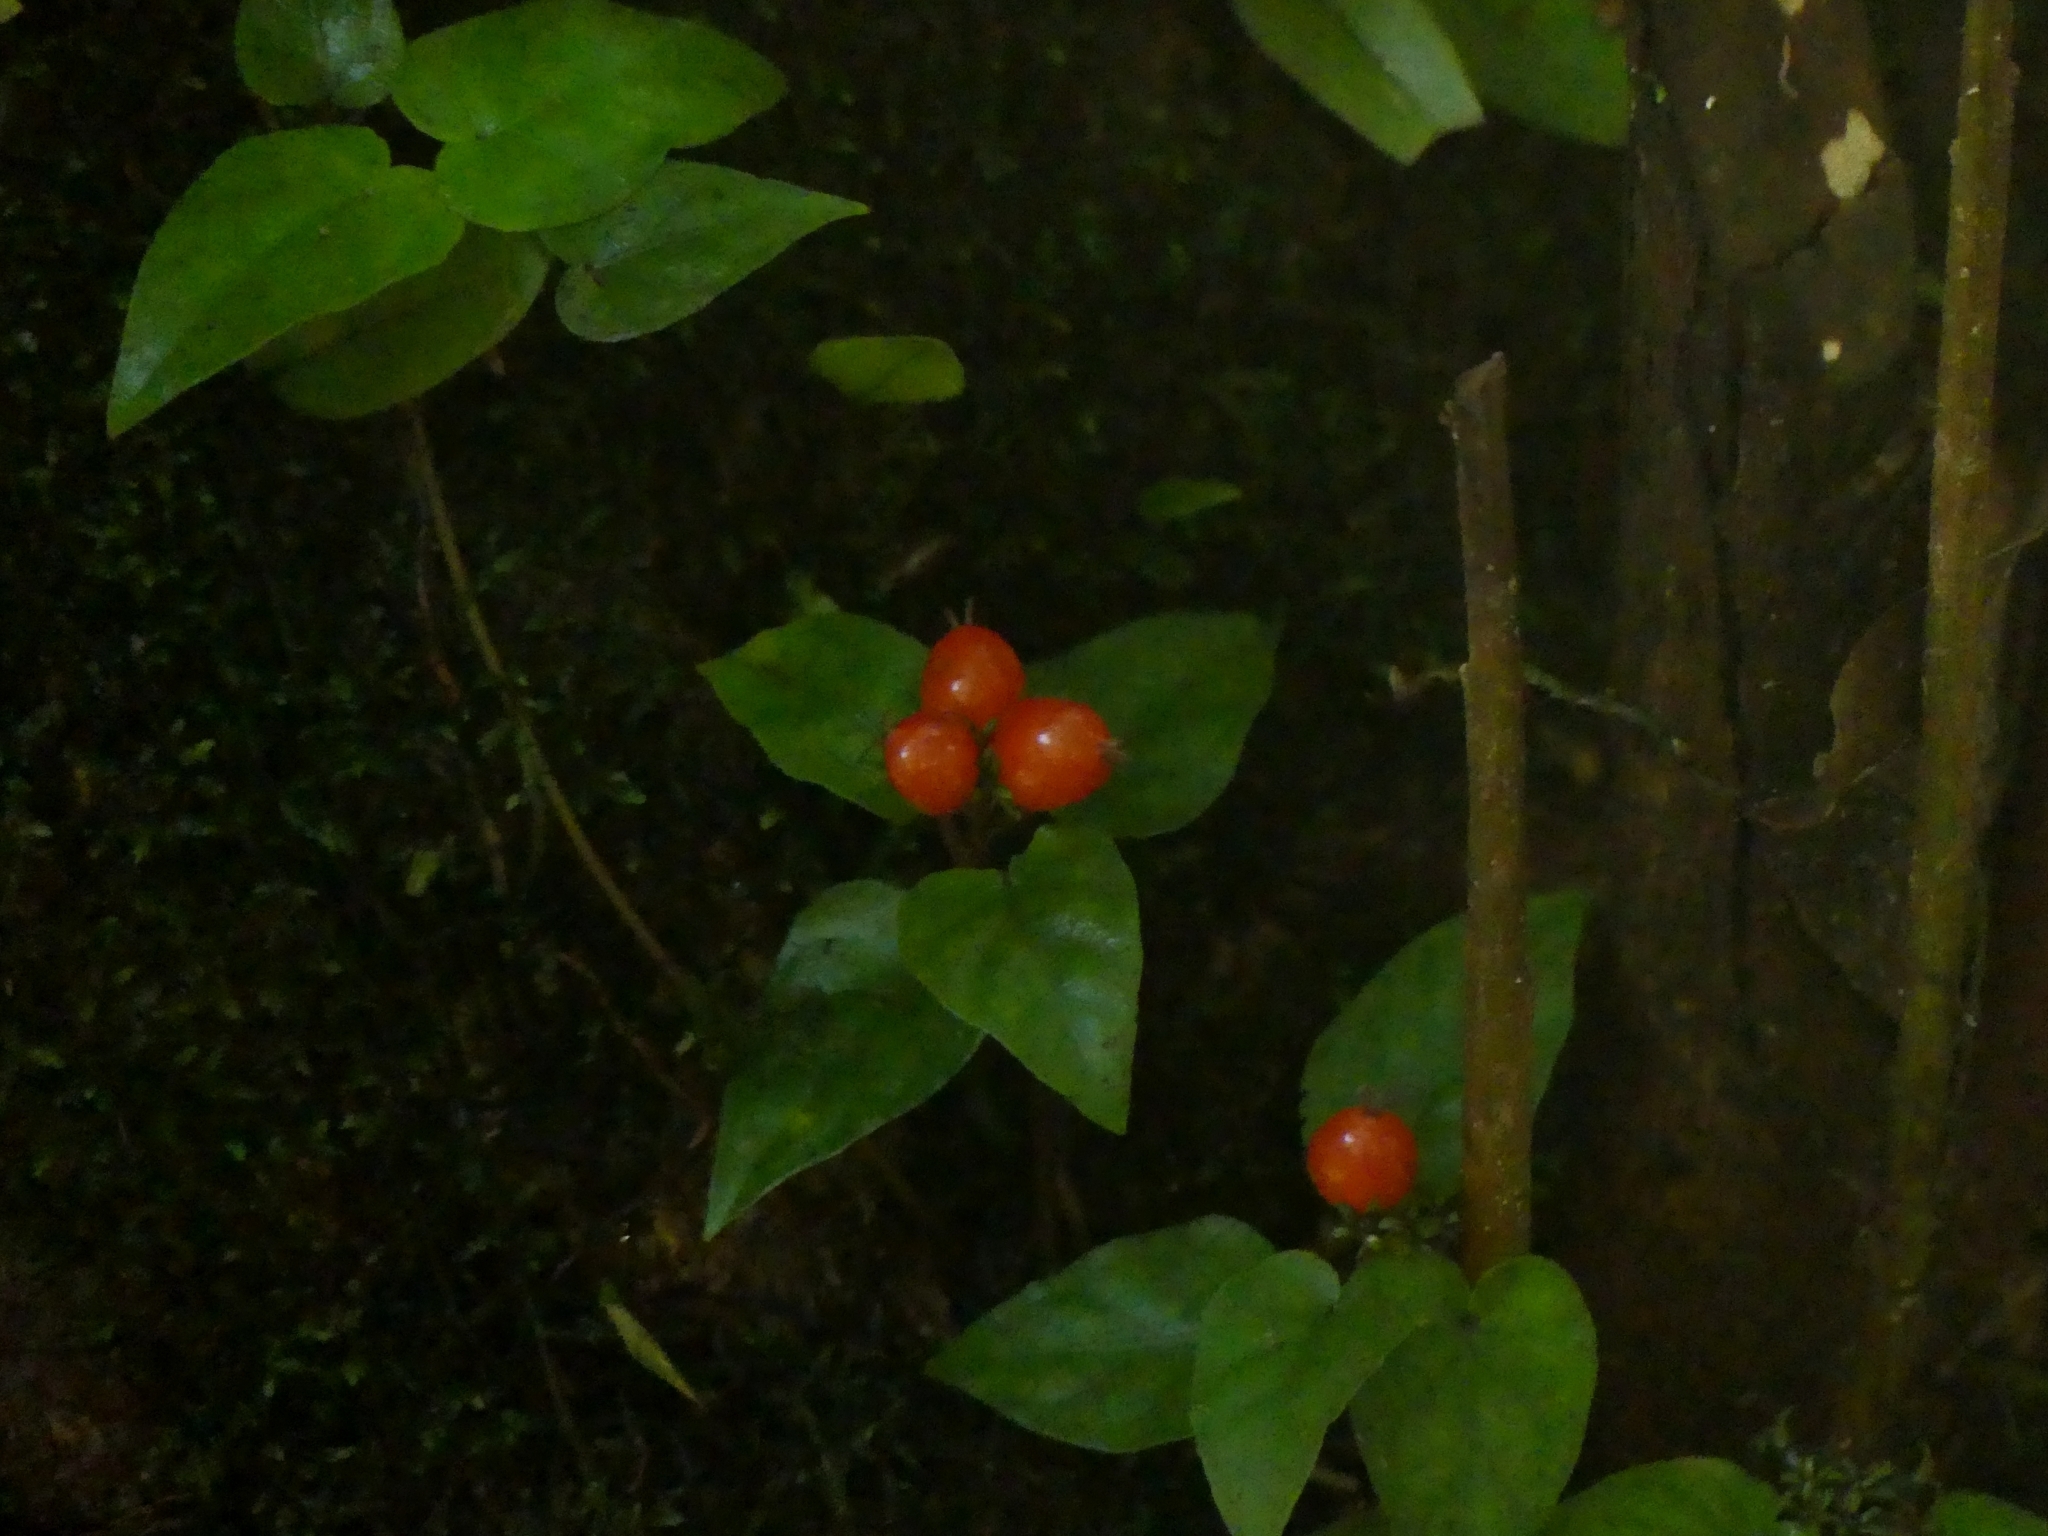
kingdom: Plantae
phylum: Tracheophyta
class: Magnoliopsida
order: Gentianales
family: Rubiaceae
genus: Geophila
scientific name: Geophila repens
